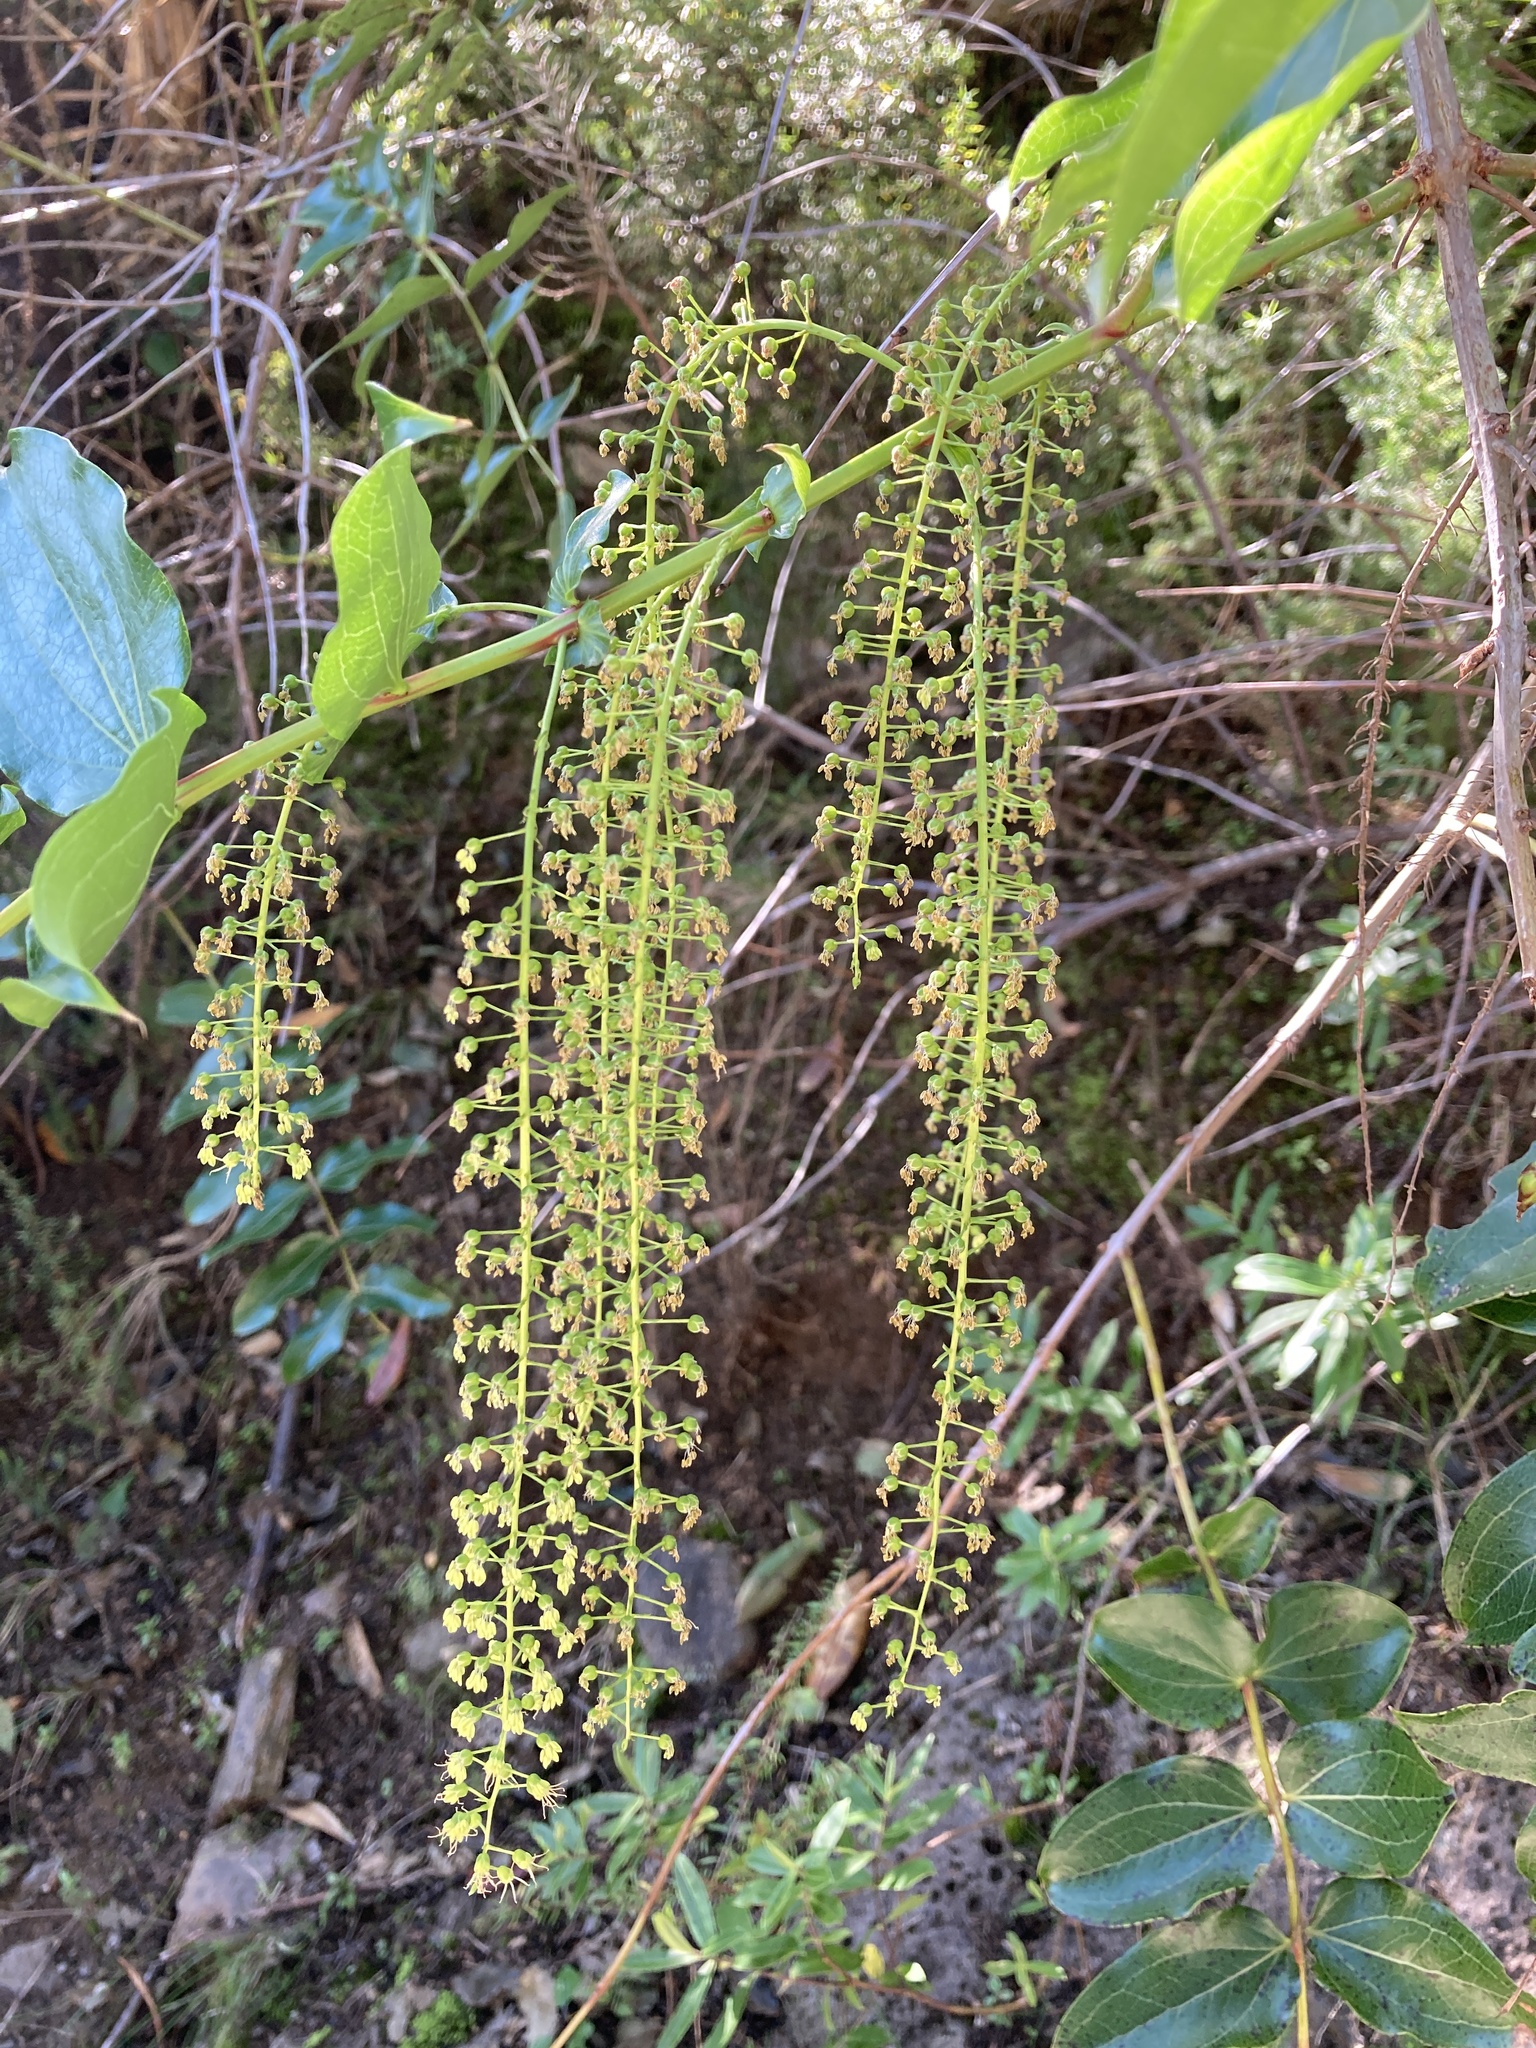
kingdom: Plantae
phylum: Tracheophyta
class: Magnoliopsida
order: Cucurbitales
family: Coriariaceae
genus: Coriaria
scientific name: Coriaria arborea
